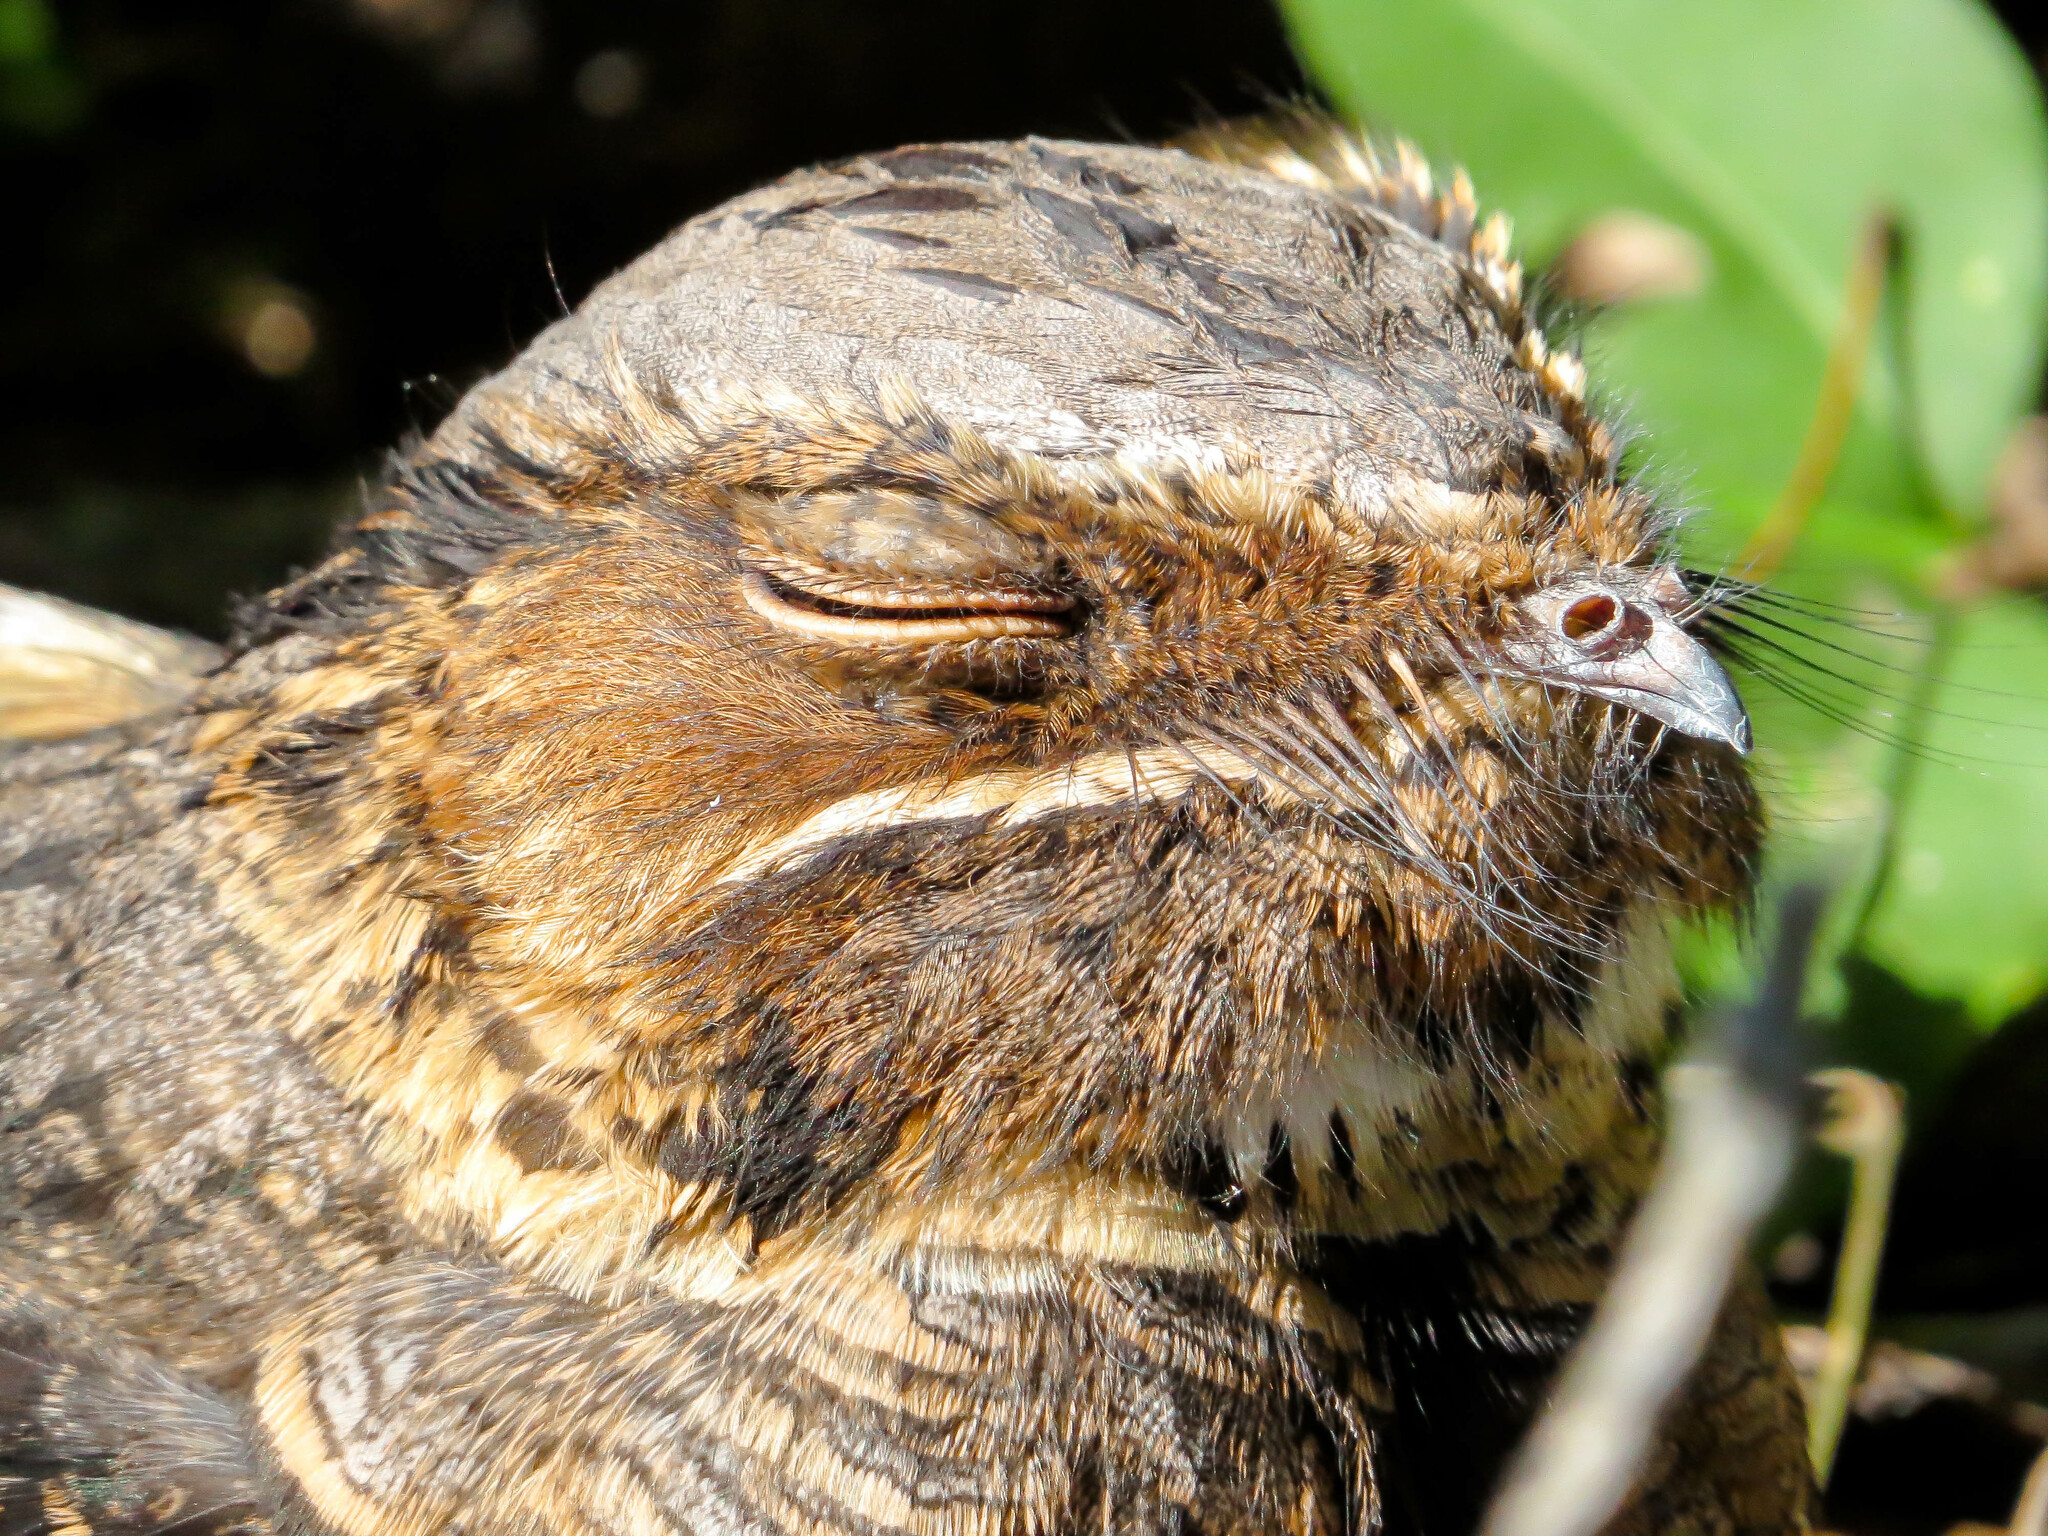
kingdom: Animalia
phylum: Chordata
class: Aves
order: Caprimulgiformes
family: Caprimulgidae
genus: Nyctidromus
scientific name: Nyctidromus albicollis
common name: Pauraque
